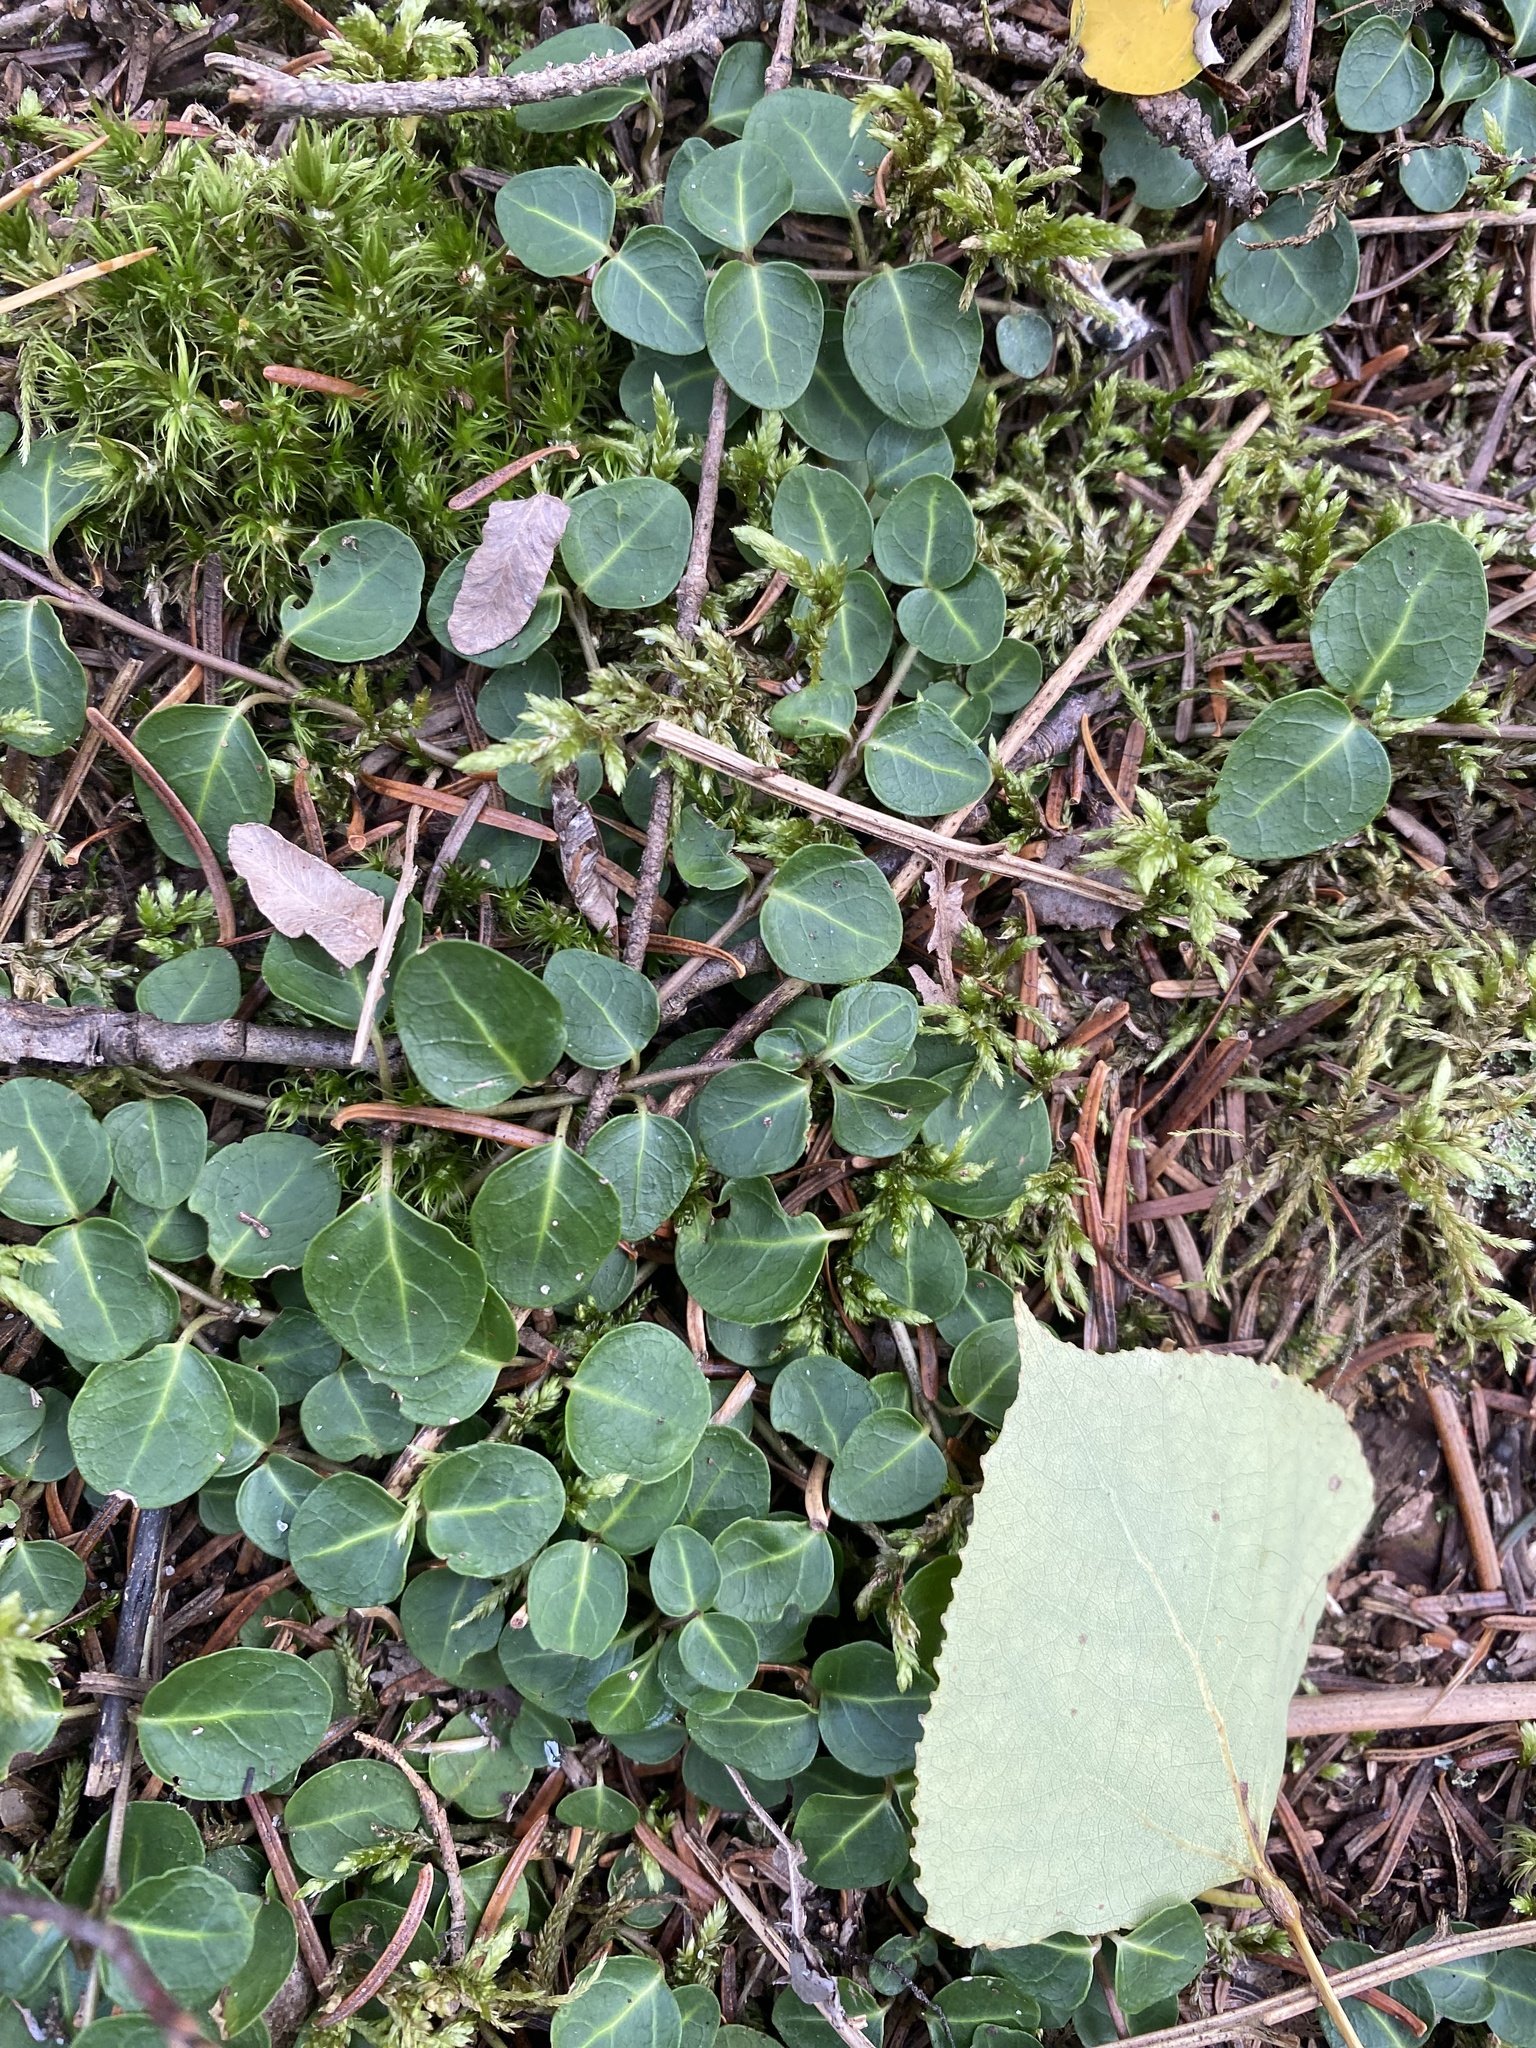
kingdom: Plantae
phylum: Tracheophyta
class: Magnoliopsida
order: Gentianales
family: Rubiaceae
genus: Mitchella
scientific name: Mitchella repens
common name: Partridge-berry
